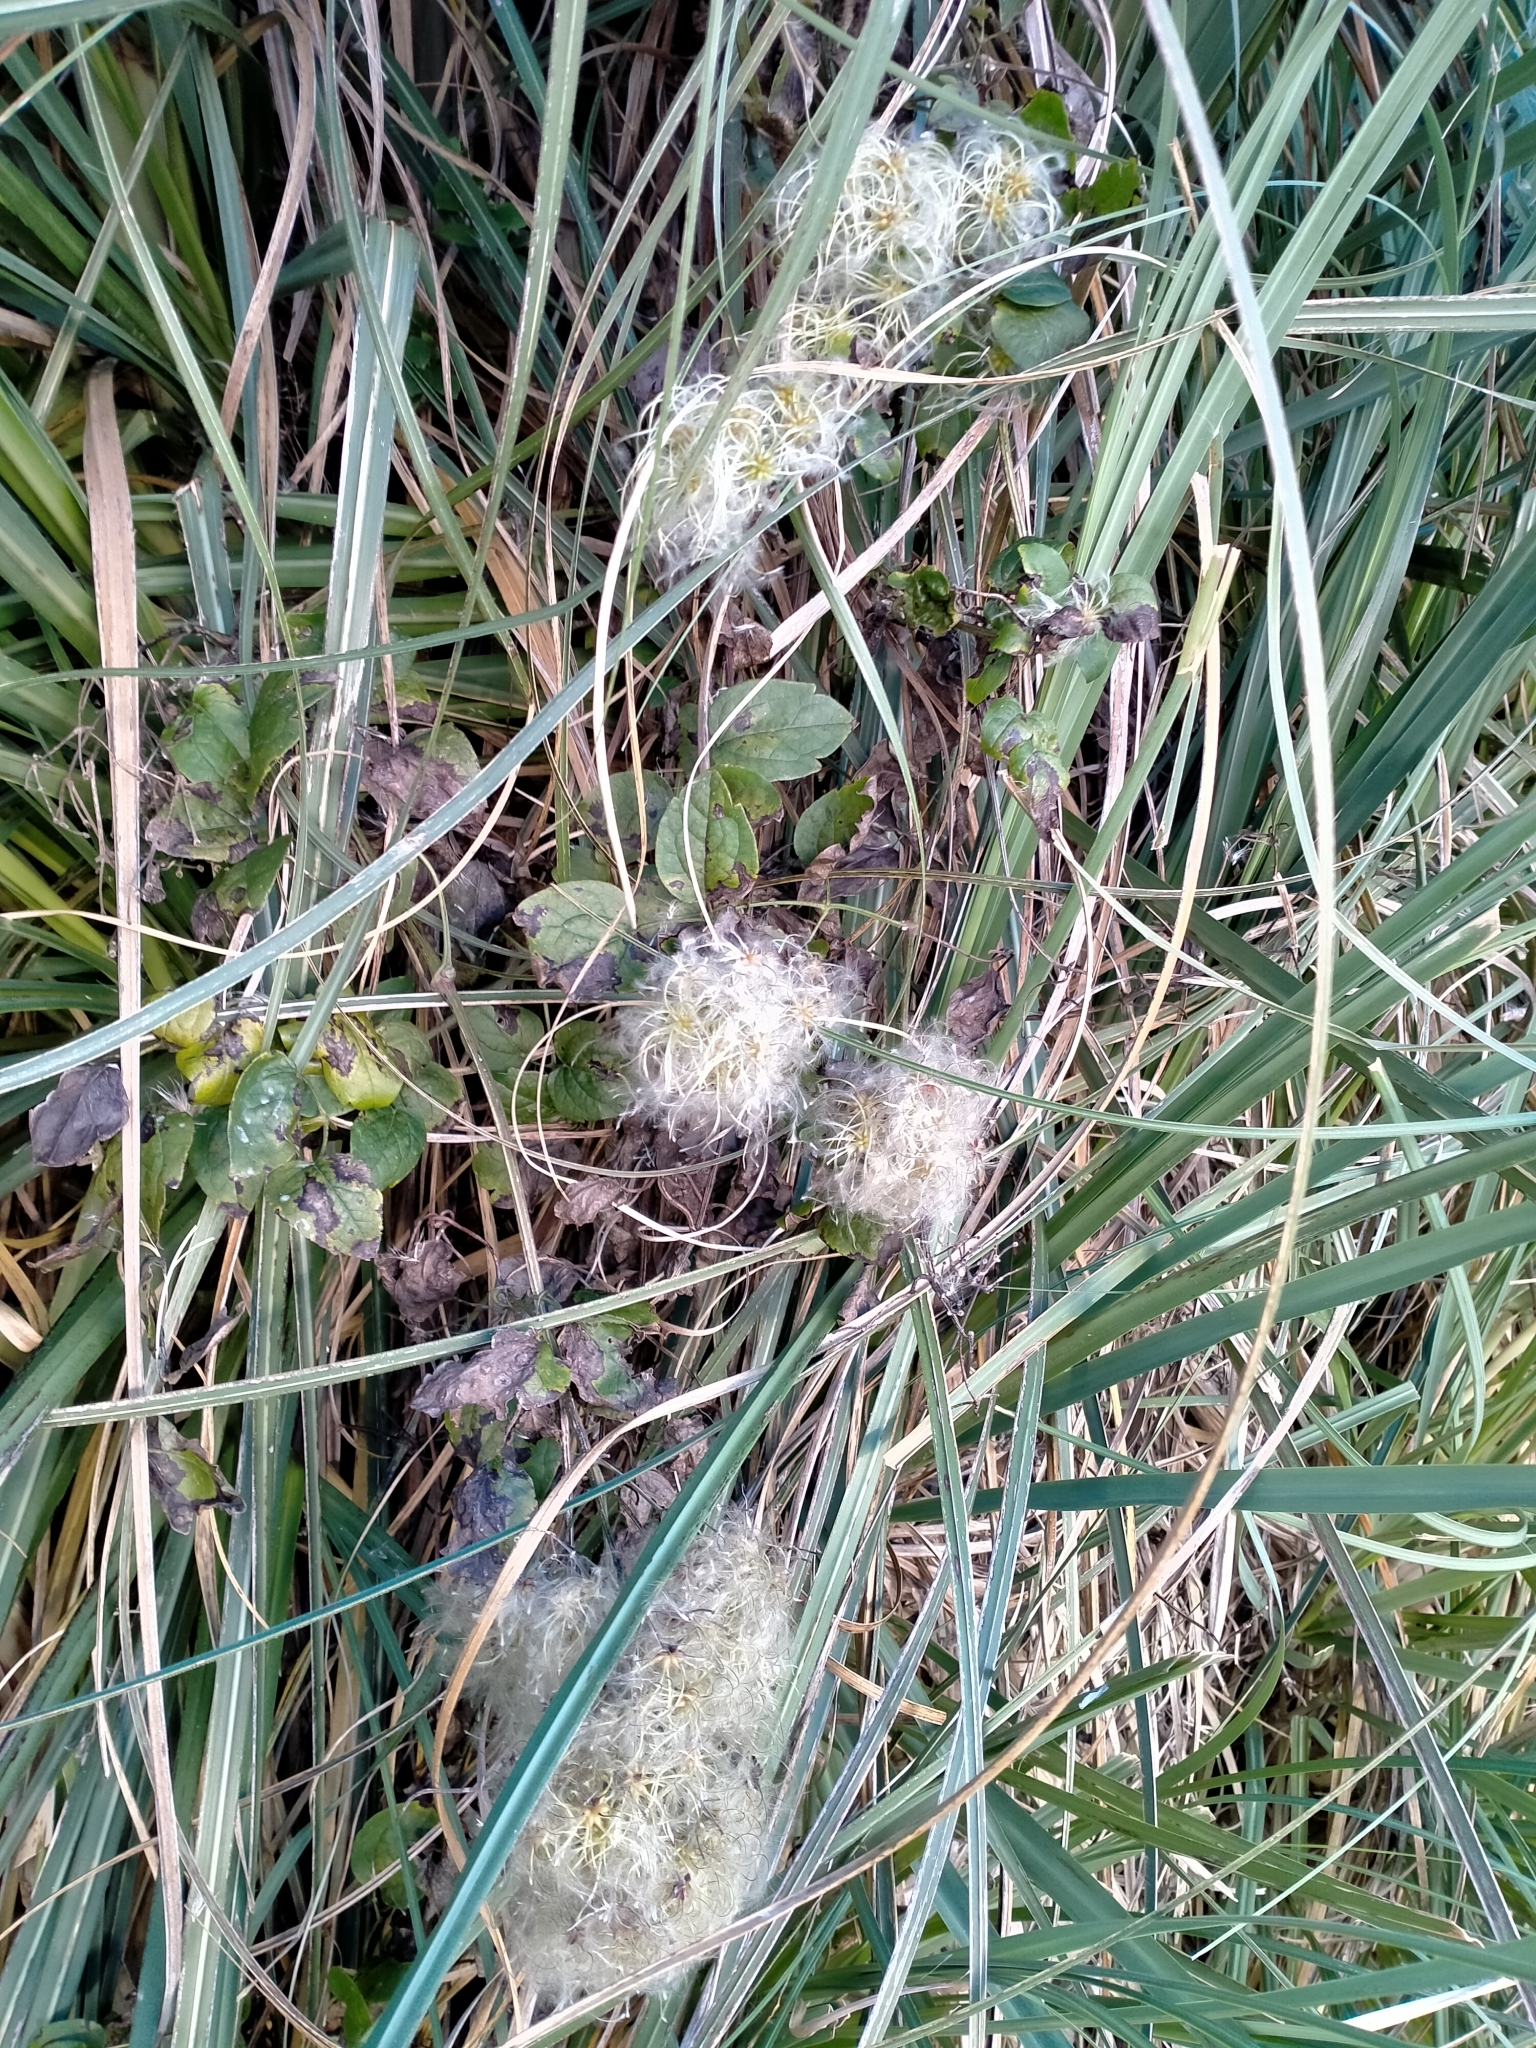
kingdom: Plantae
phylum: Tracheophyta
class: Magnoliopsida
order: Ranunculales
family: Ranunculaceae
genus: Clematis
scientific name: Clematis vitalba
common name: Evergreen clematis
